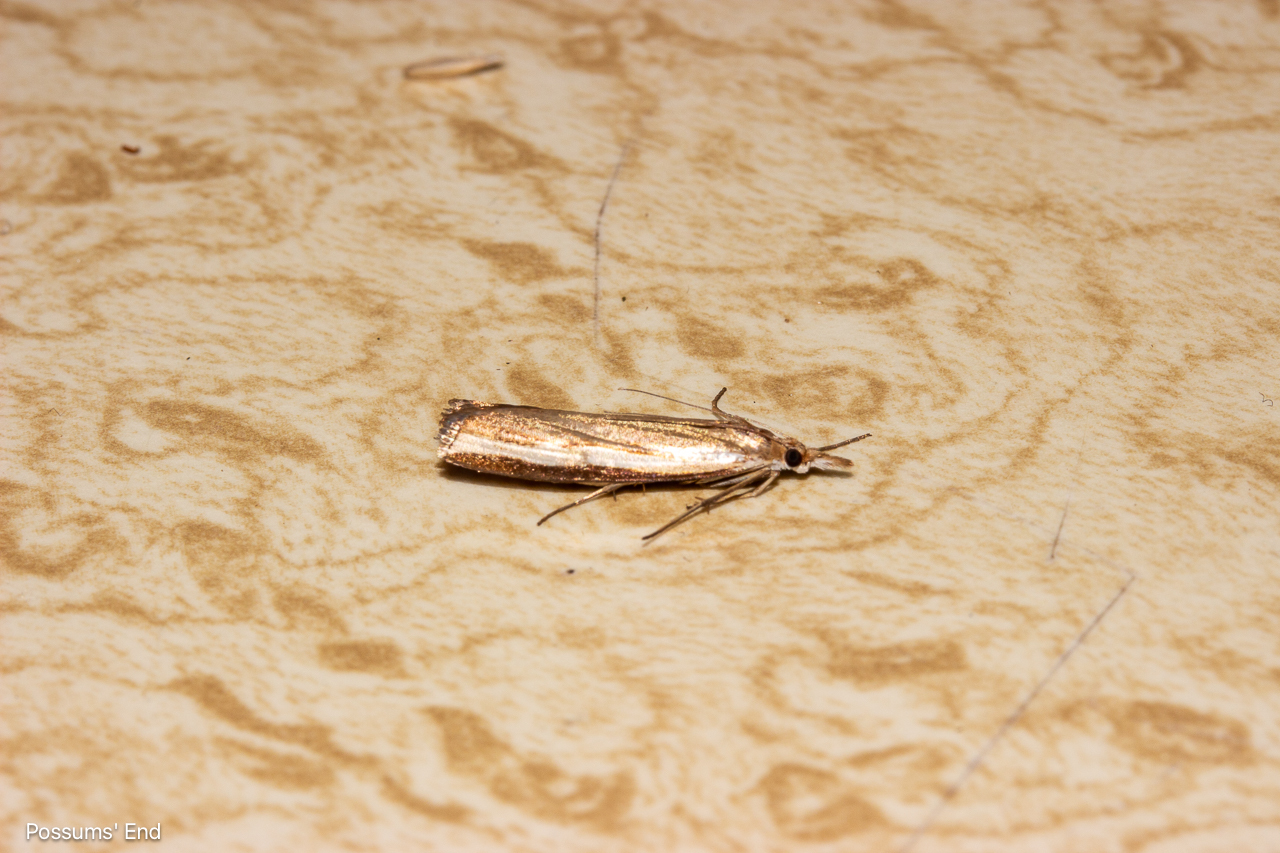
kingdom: Animalia
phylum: Arthropoda
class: Insecta
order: Lepidoptera
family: Crambidae
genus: Orocrambus
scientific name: Orocrambus flexuosellus
